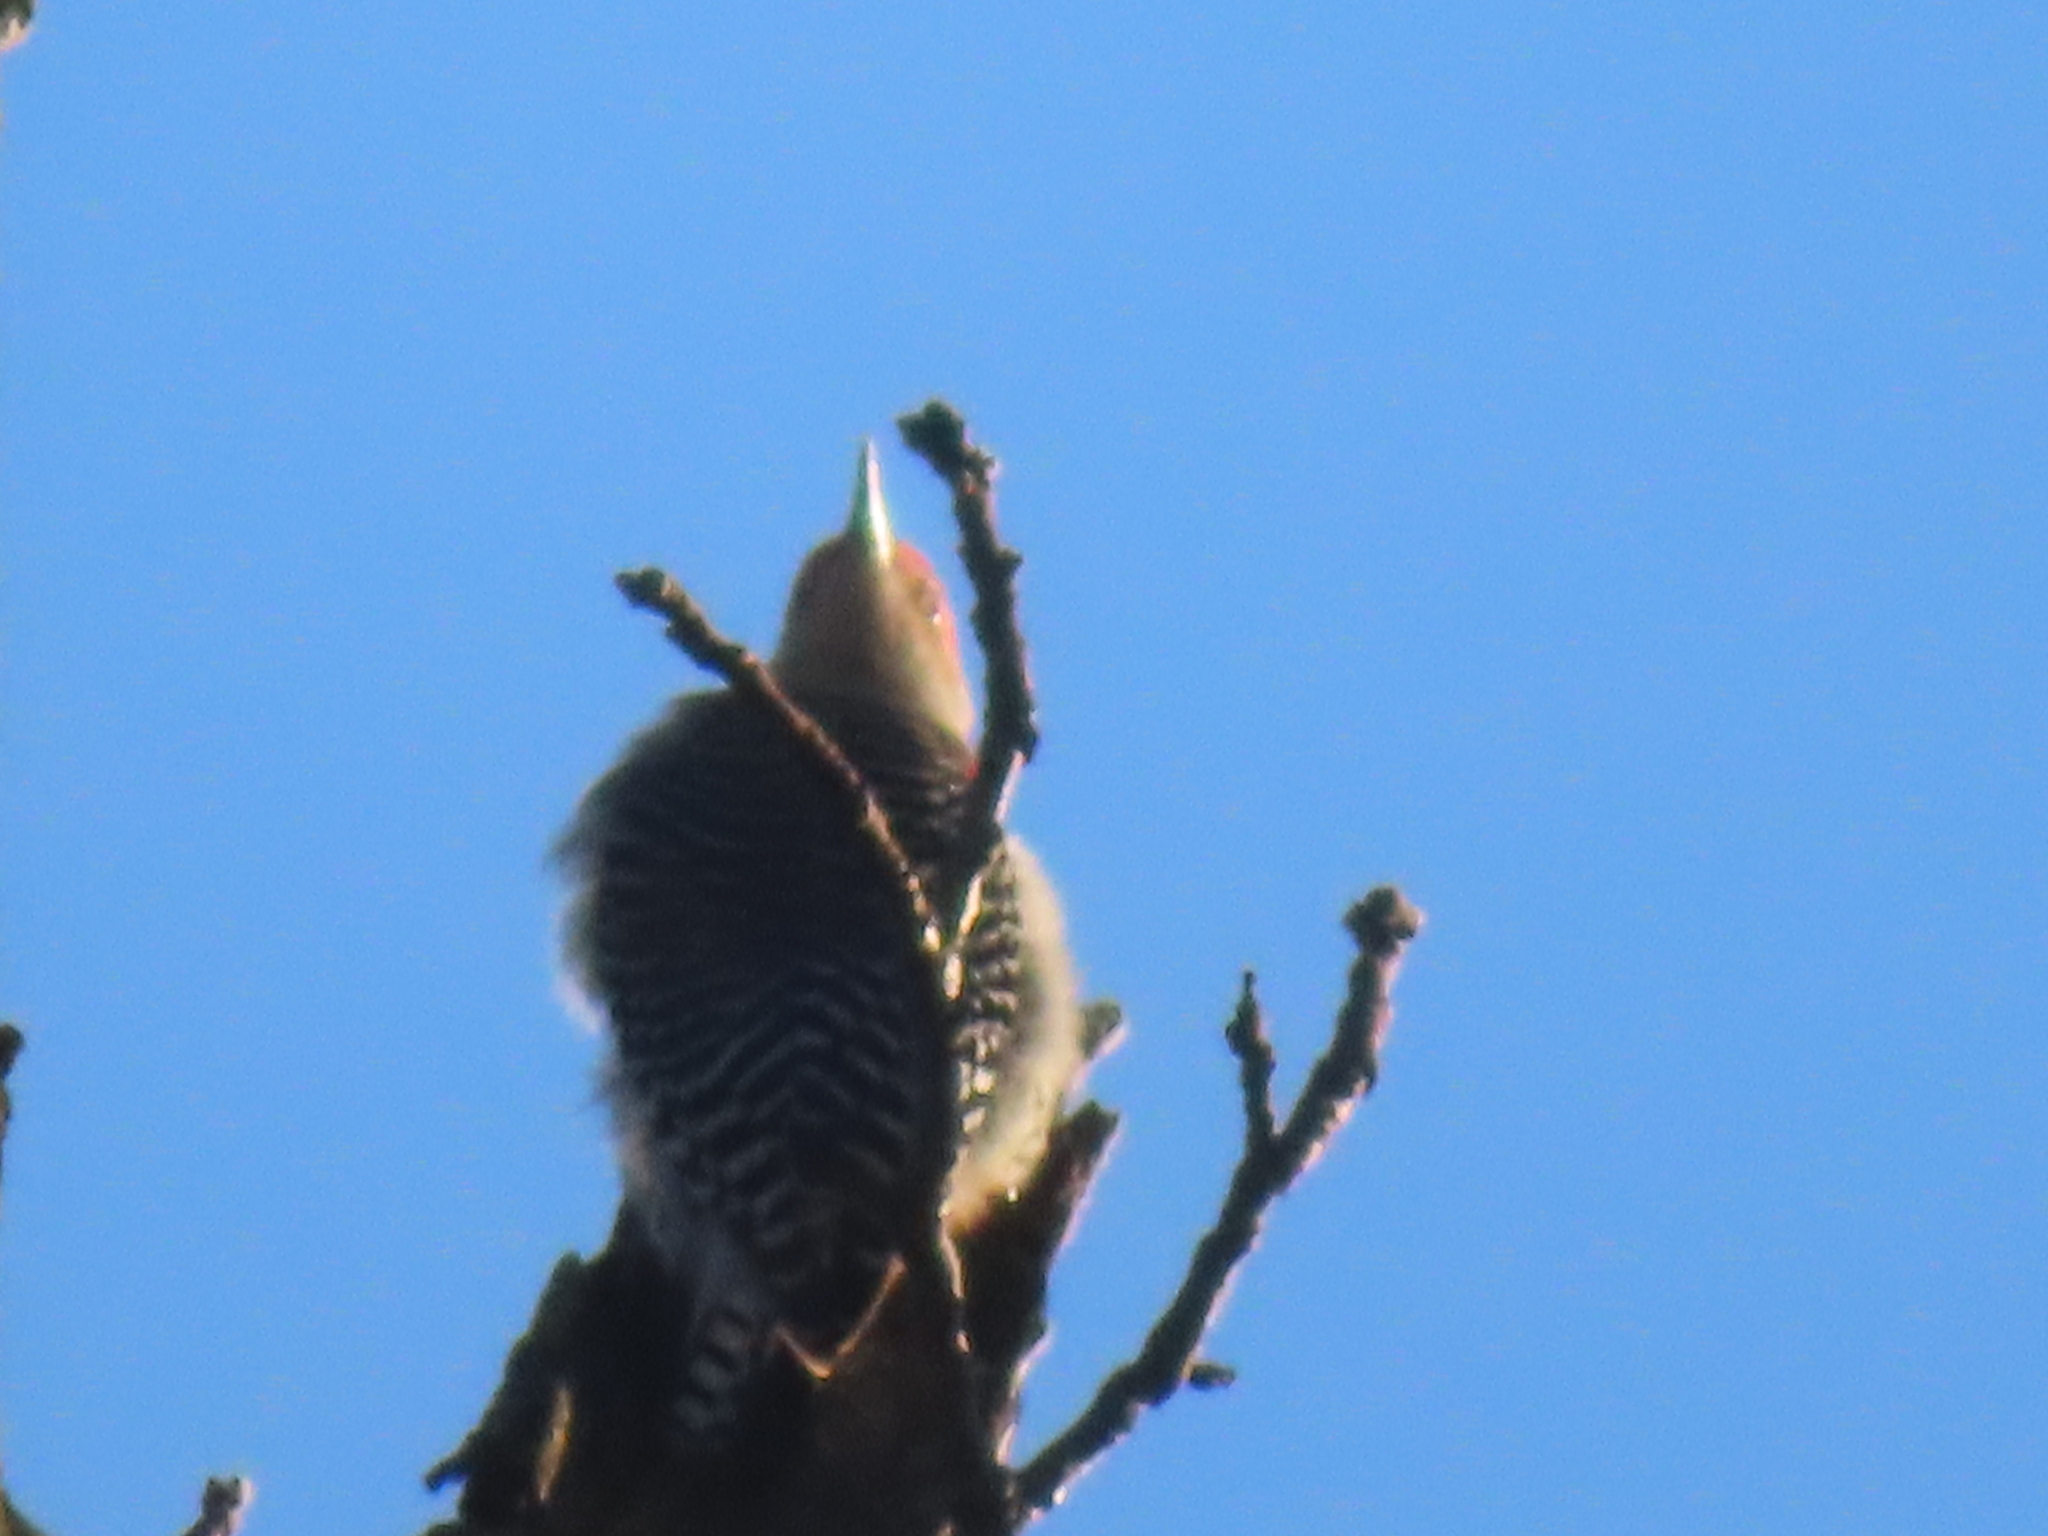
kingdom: Animalia
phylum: Chordata
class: Aves
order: Piciformes
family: Picidae
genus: Melanerpes
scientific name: Melanerpes carolinus
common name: Red-bellied woodpecker
